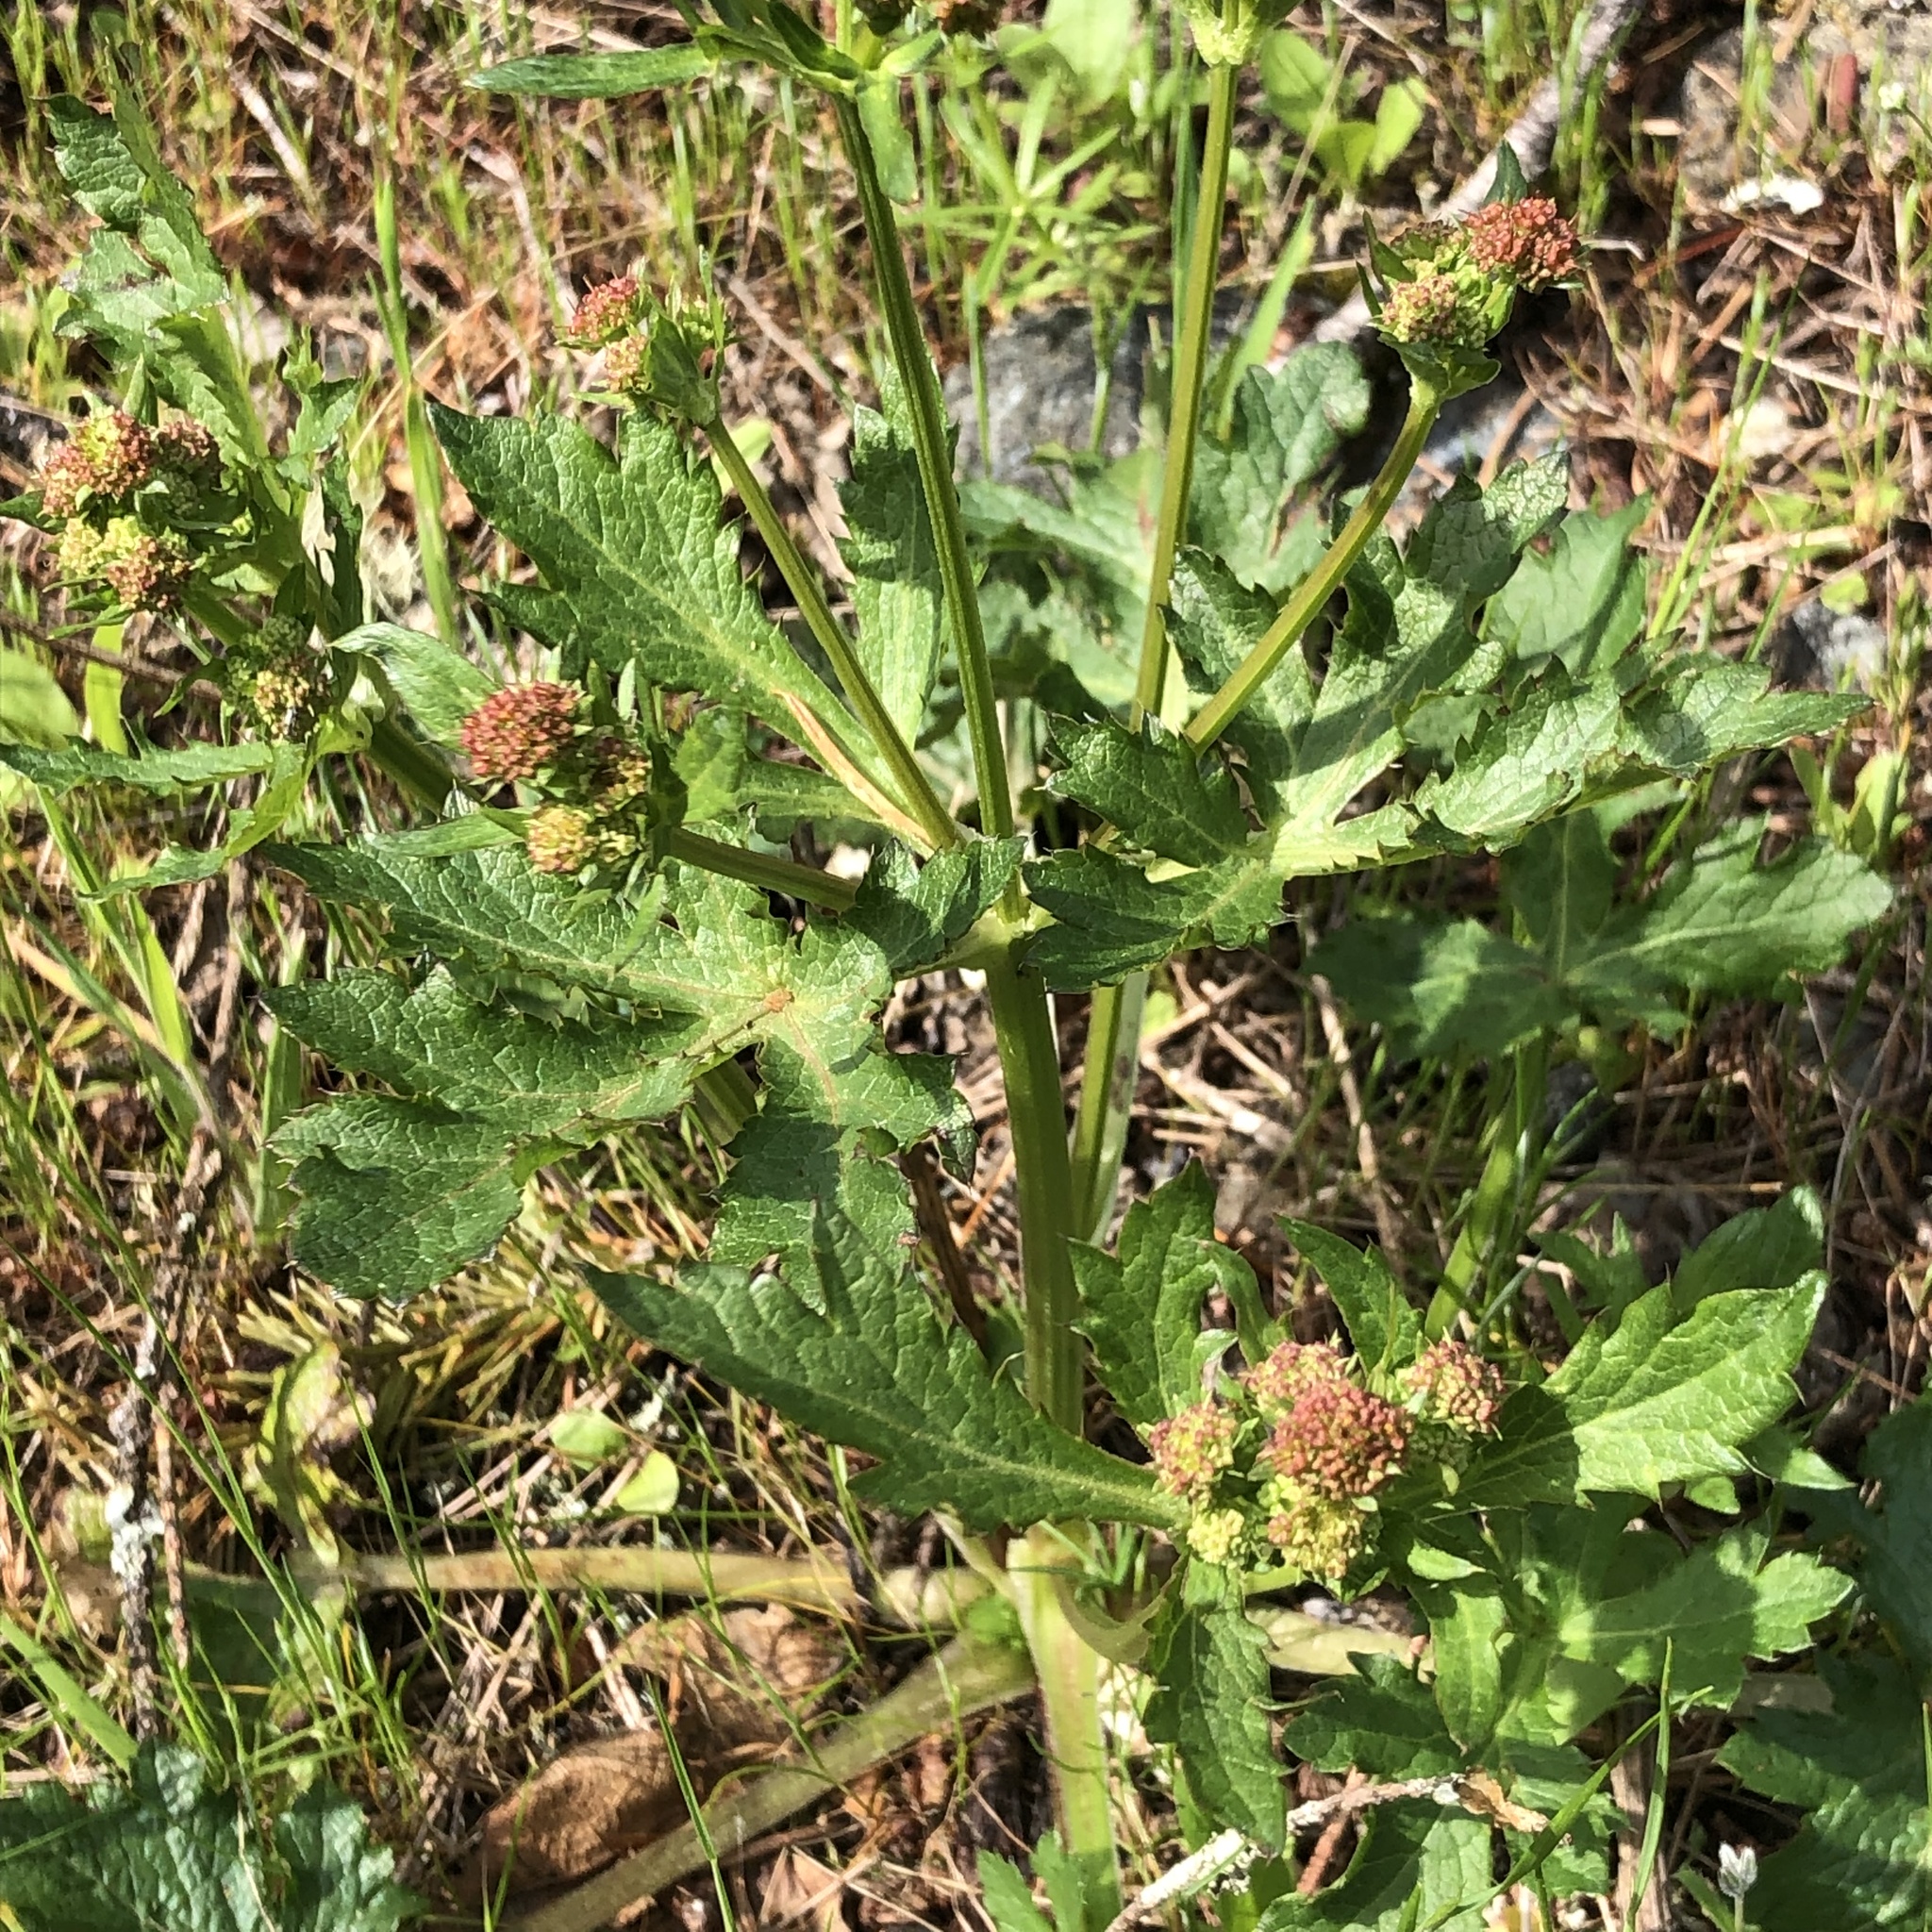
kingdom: Plantae
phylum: Tracheophyta
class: Magnoliopsida
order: Apiales
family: Apiaceae
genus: Sanicula
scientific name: Sanicula crassicaulis
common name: Western snakeroot
